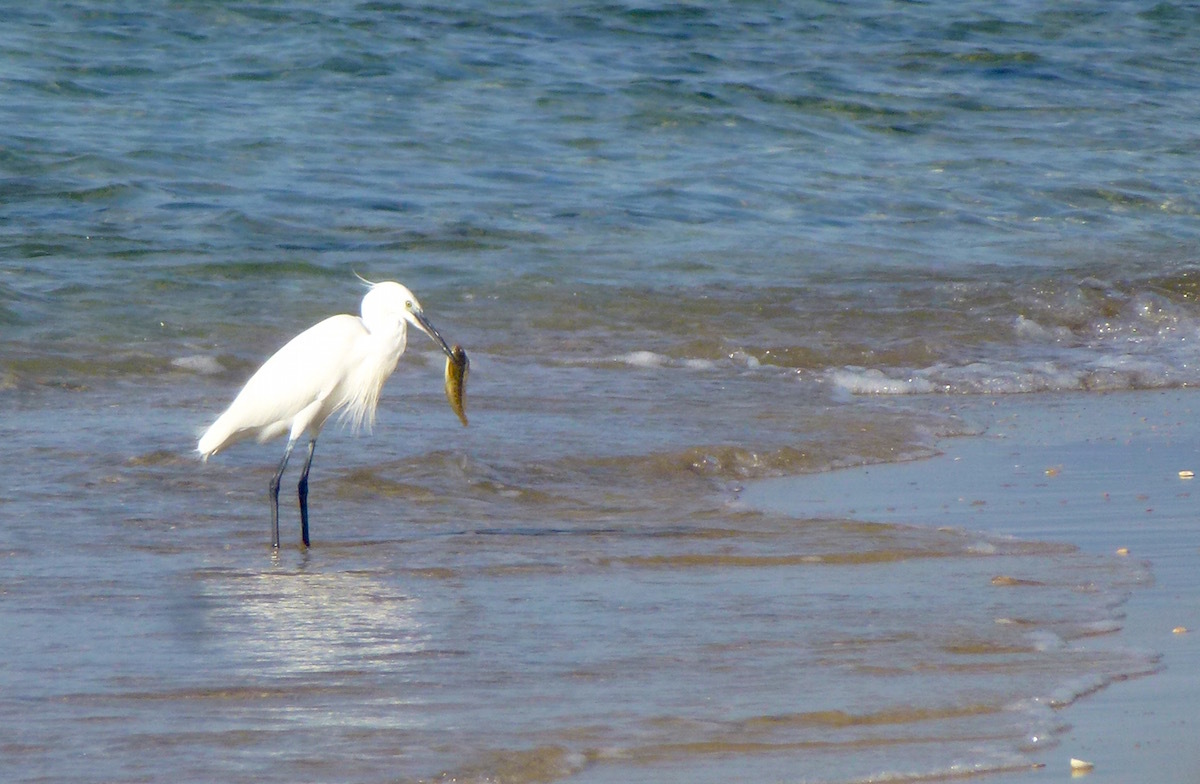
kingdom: Animalia
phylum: Chordata
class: Aves
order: Pelecaniformes
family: Ardeidae
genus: Egretta
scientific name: Egretta garzetta
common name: Little egret
